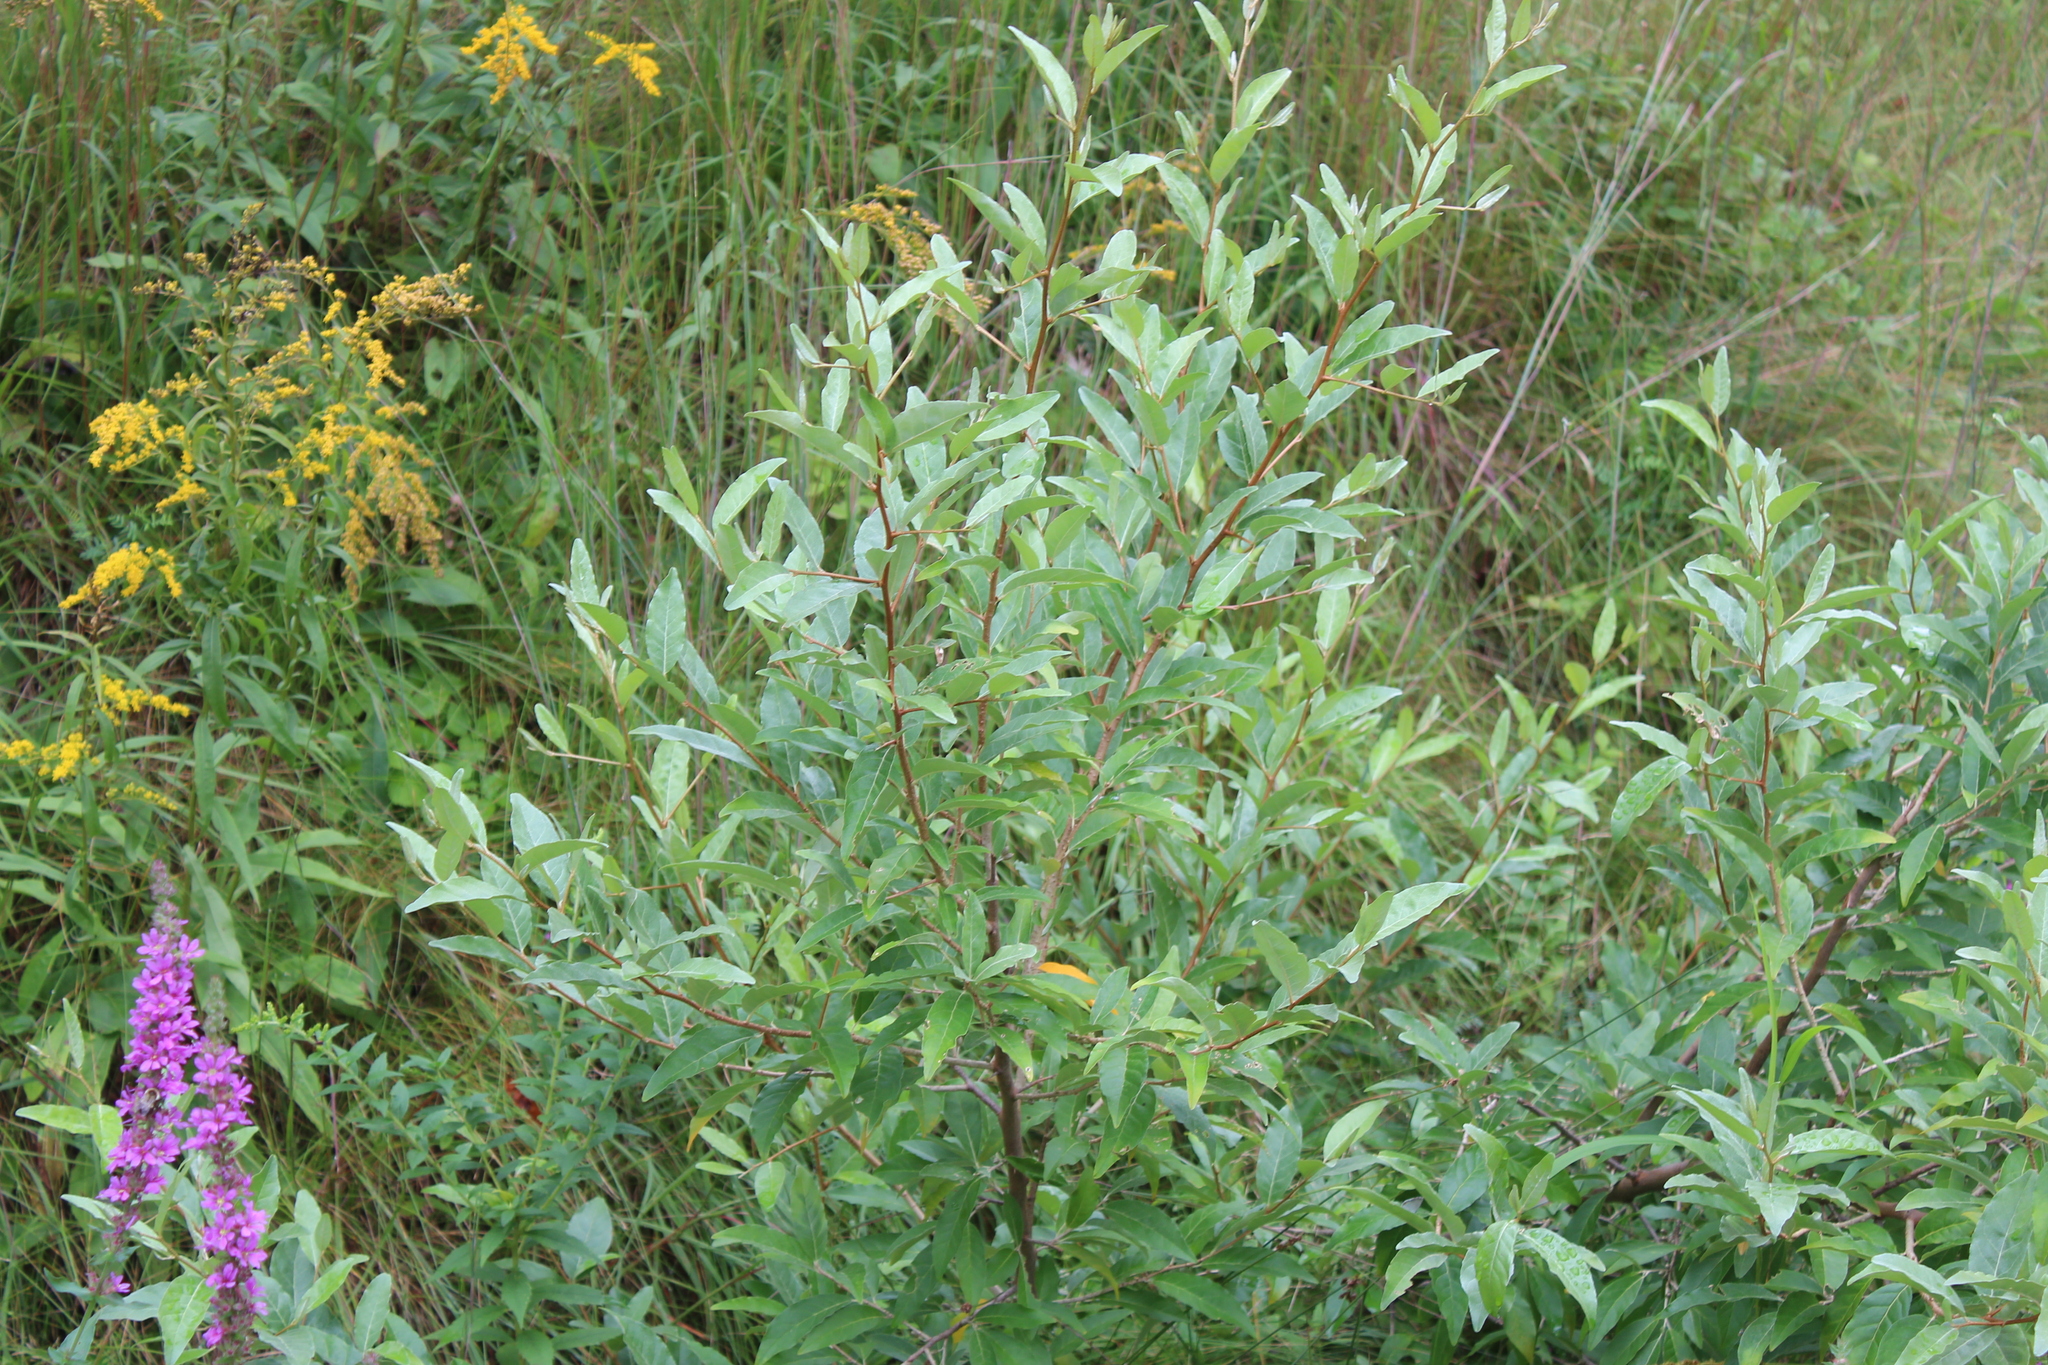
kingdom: Plantae
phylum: Tracheophyta
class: Magnoliopsida
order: Rosales
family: Elaeagnaceae
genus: Elaeagnus
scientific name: Elaeagnus umbellata
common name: Autumn olive
